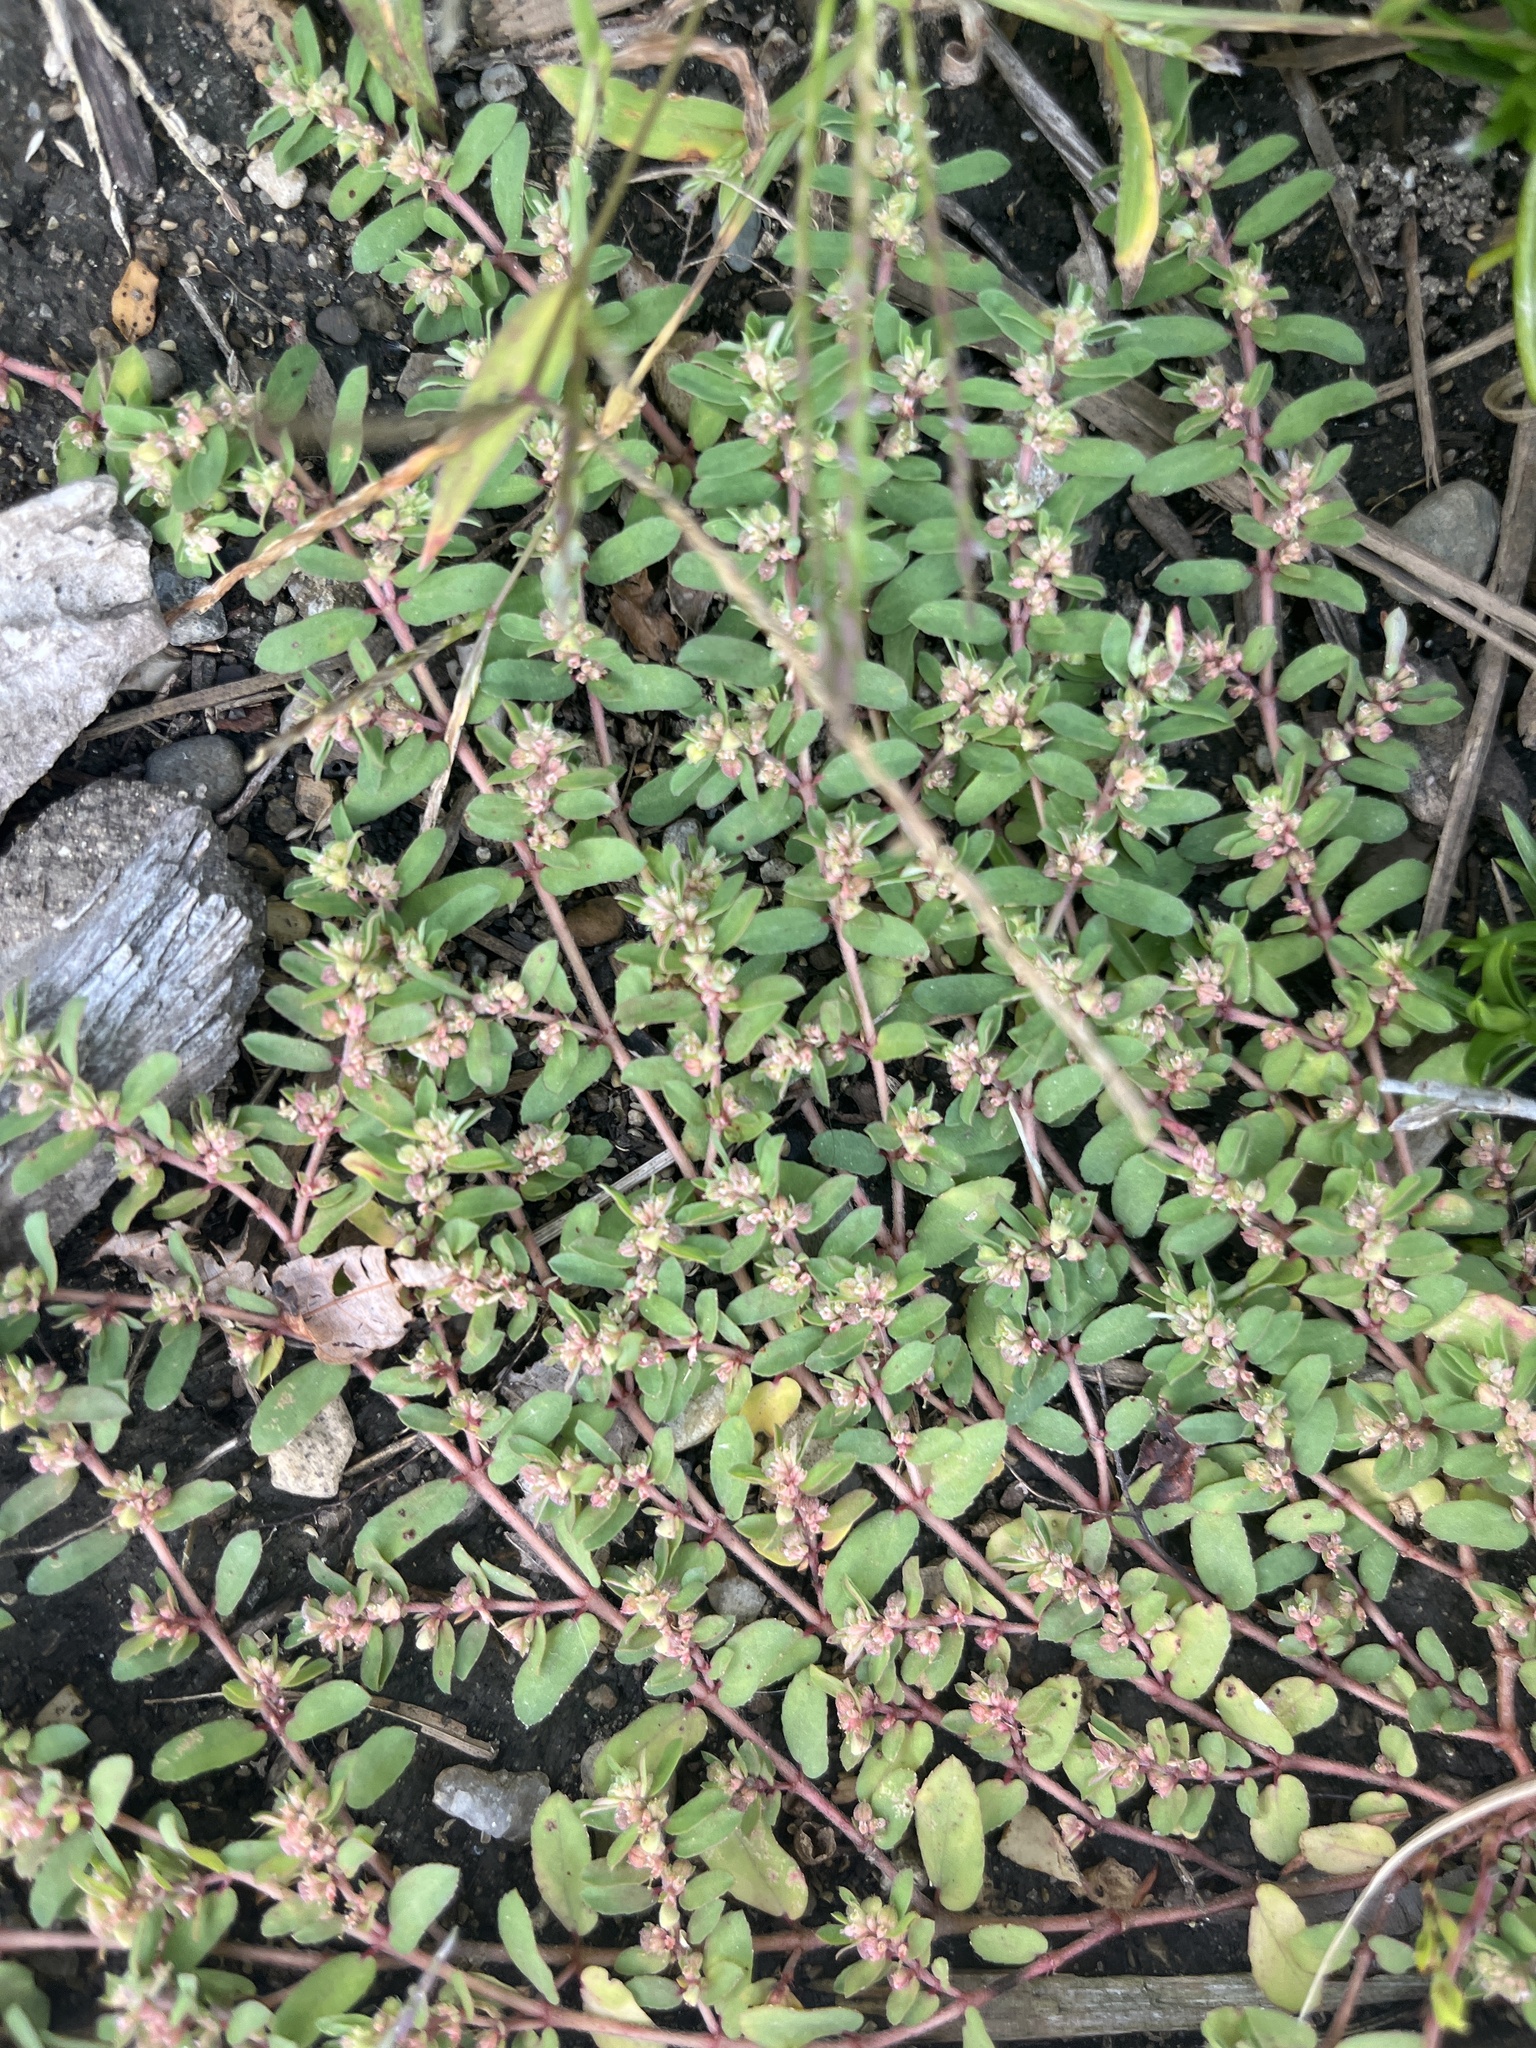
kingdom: Plantae
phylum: Tracheophyta
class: Magnoliopsida
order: Malpighiales
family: Euphorbiaceae
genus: Euphorbia
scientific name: Euphorbia maculata
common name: Spotted spurge
